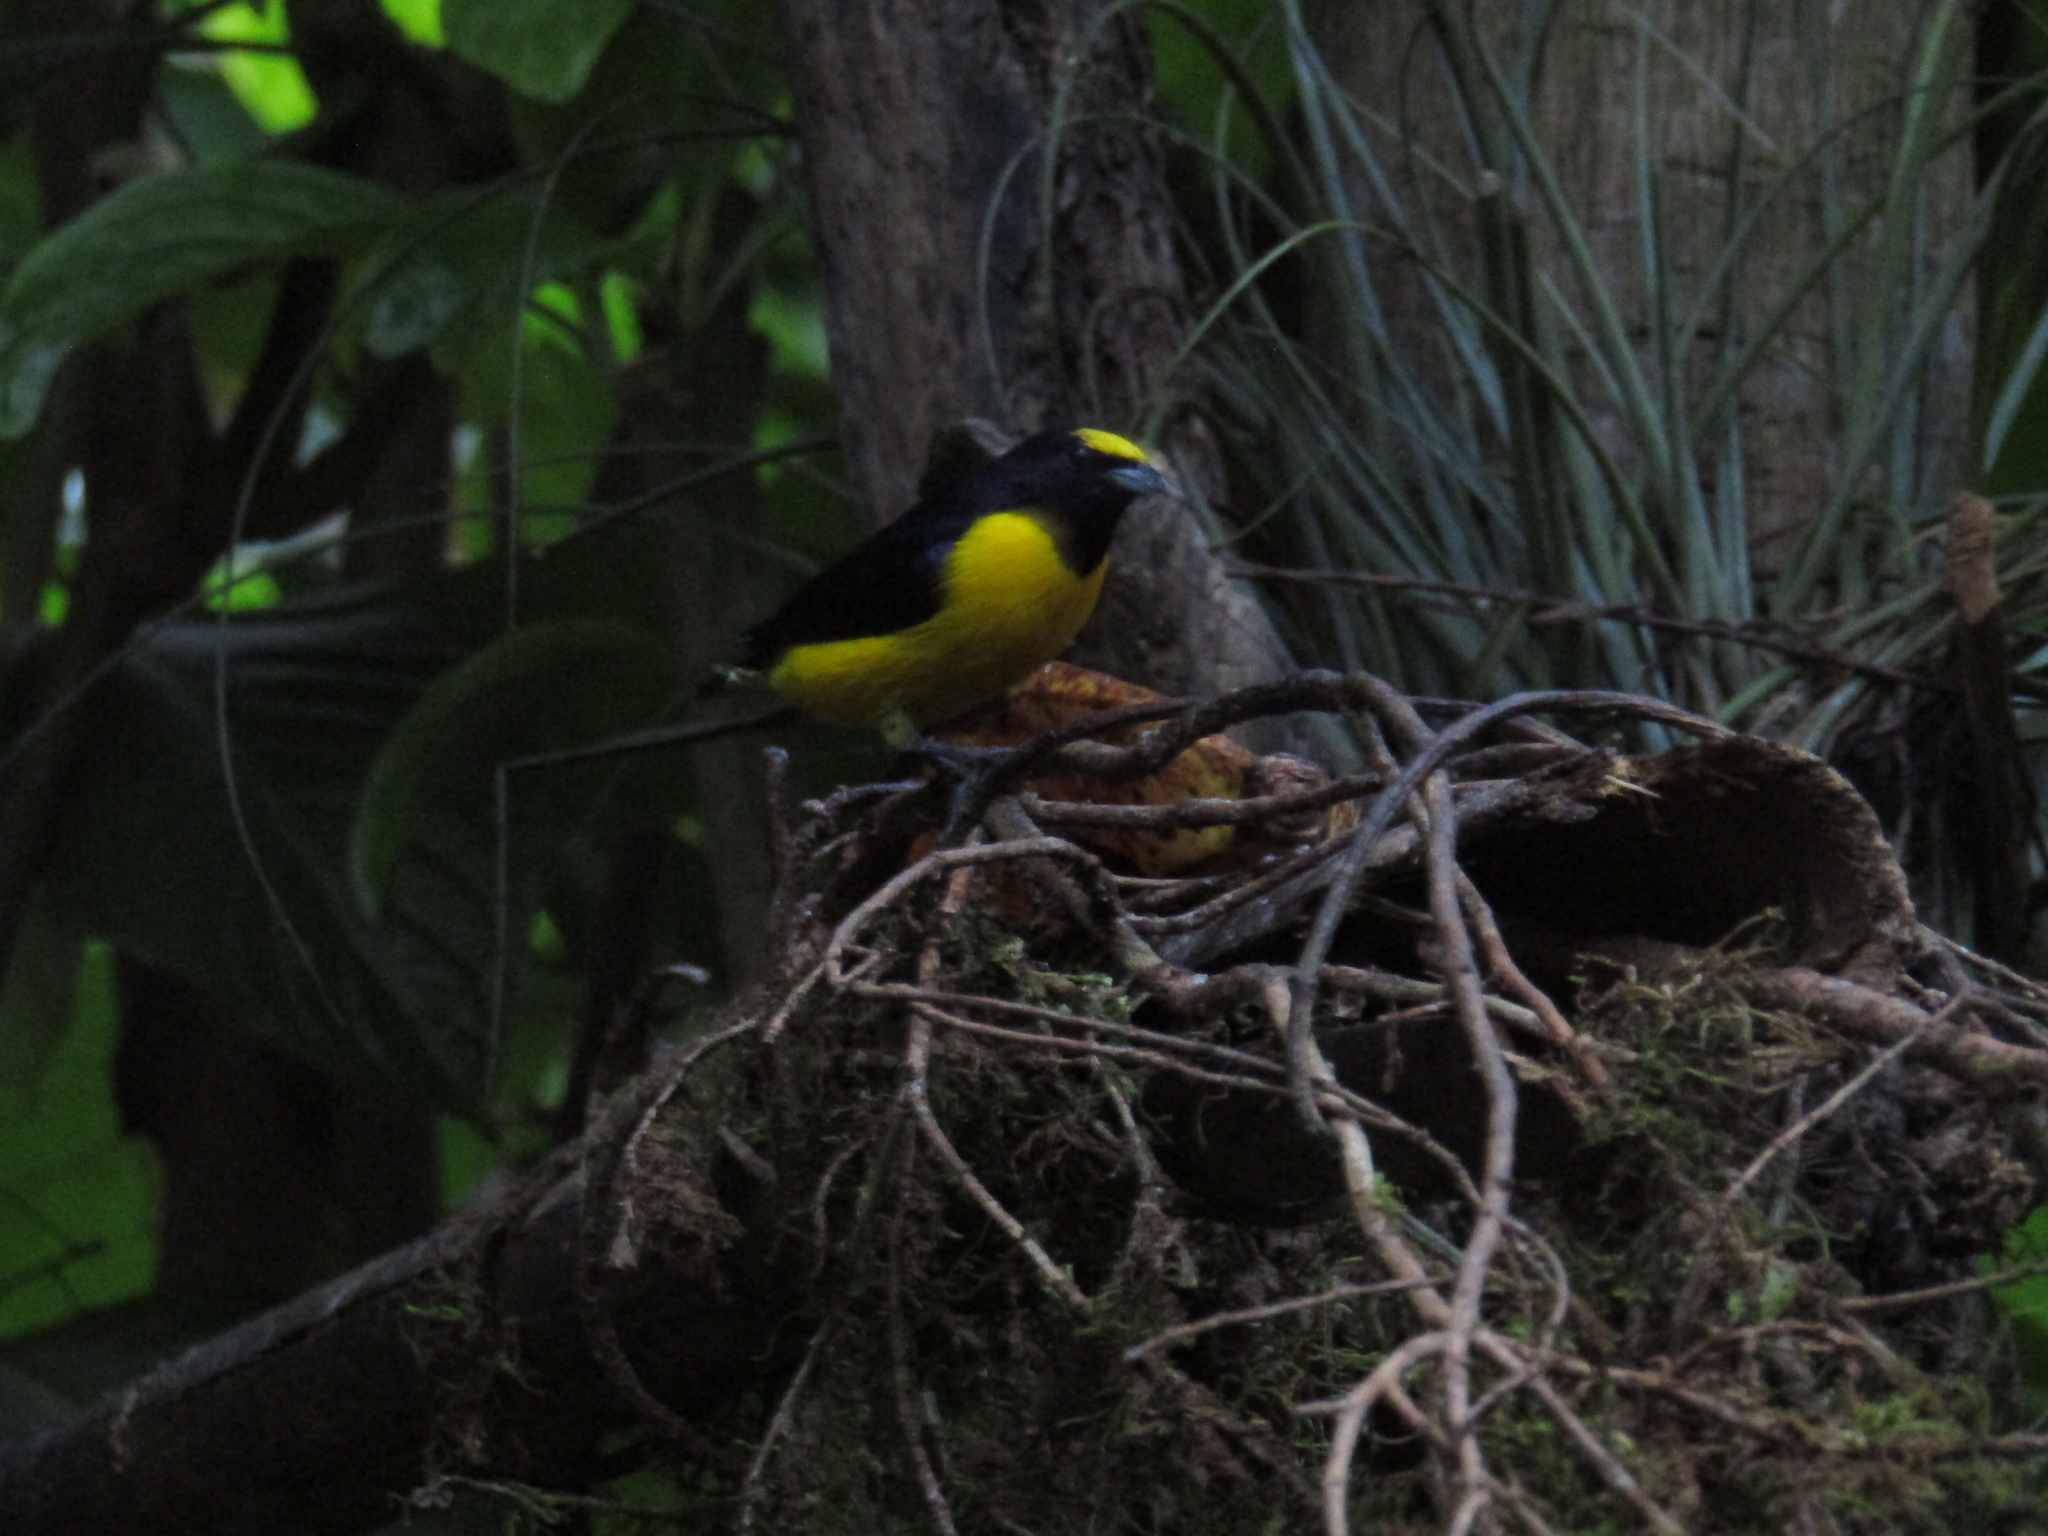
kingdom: Animalia
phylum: Chordata
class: Aves
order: Passeriformes
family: Fringillidae
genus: Euphonia
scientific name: Euphonia chlorotica
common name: Purple-throated euphonia
